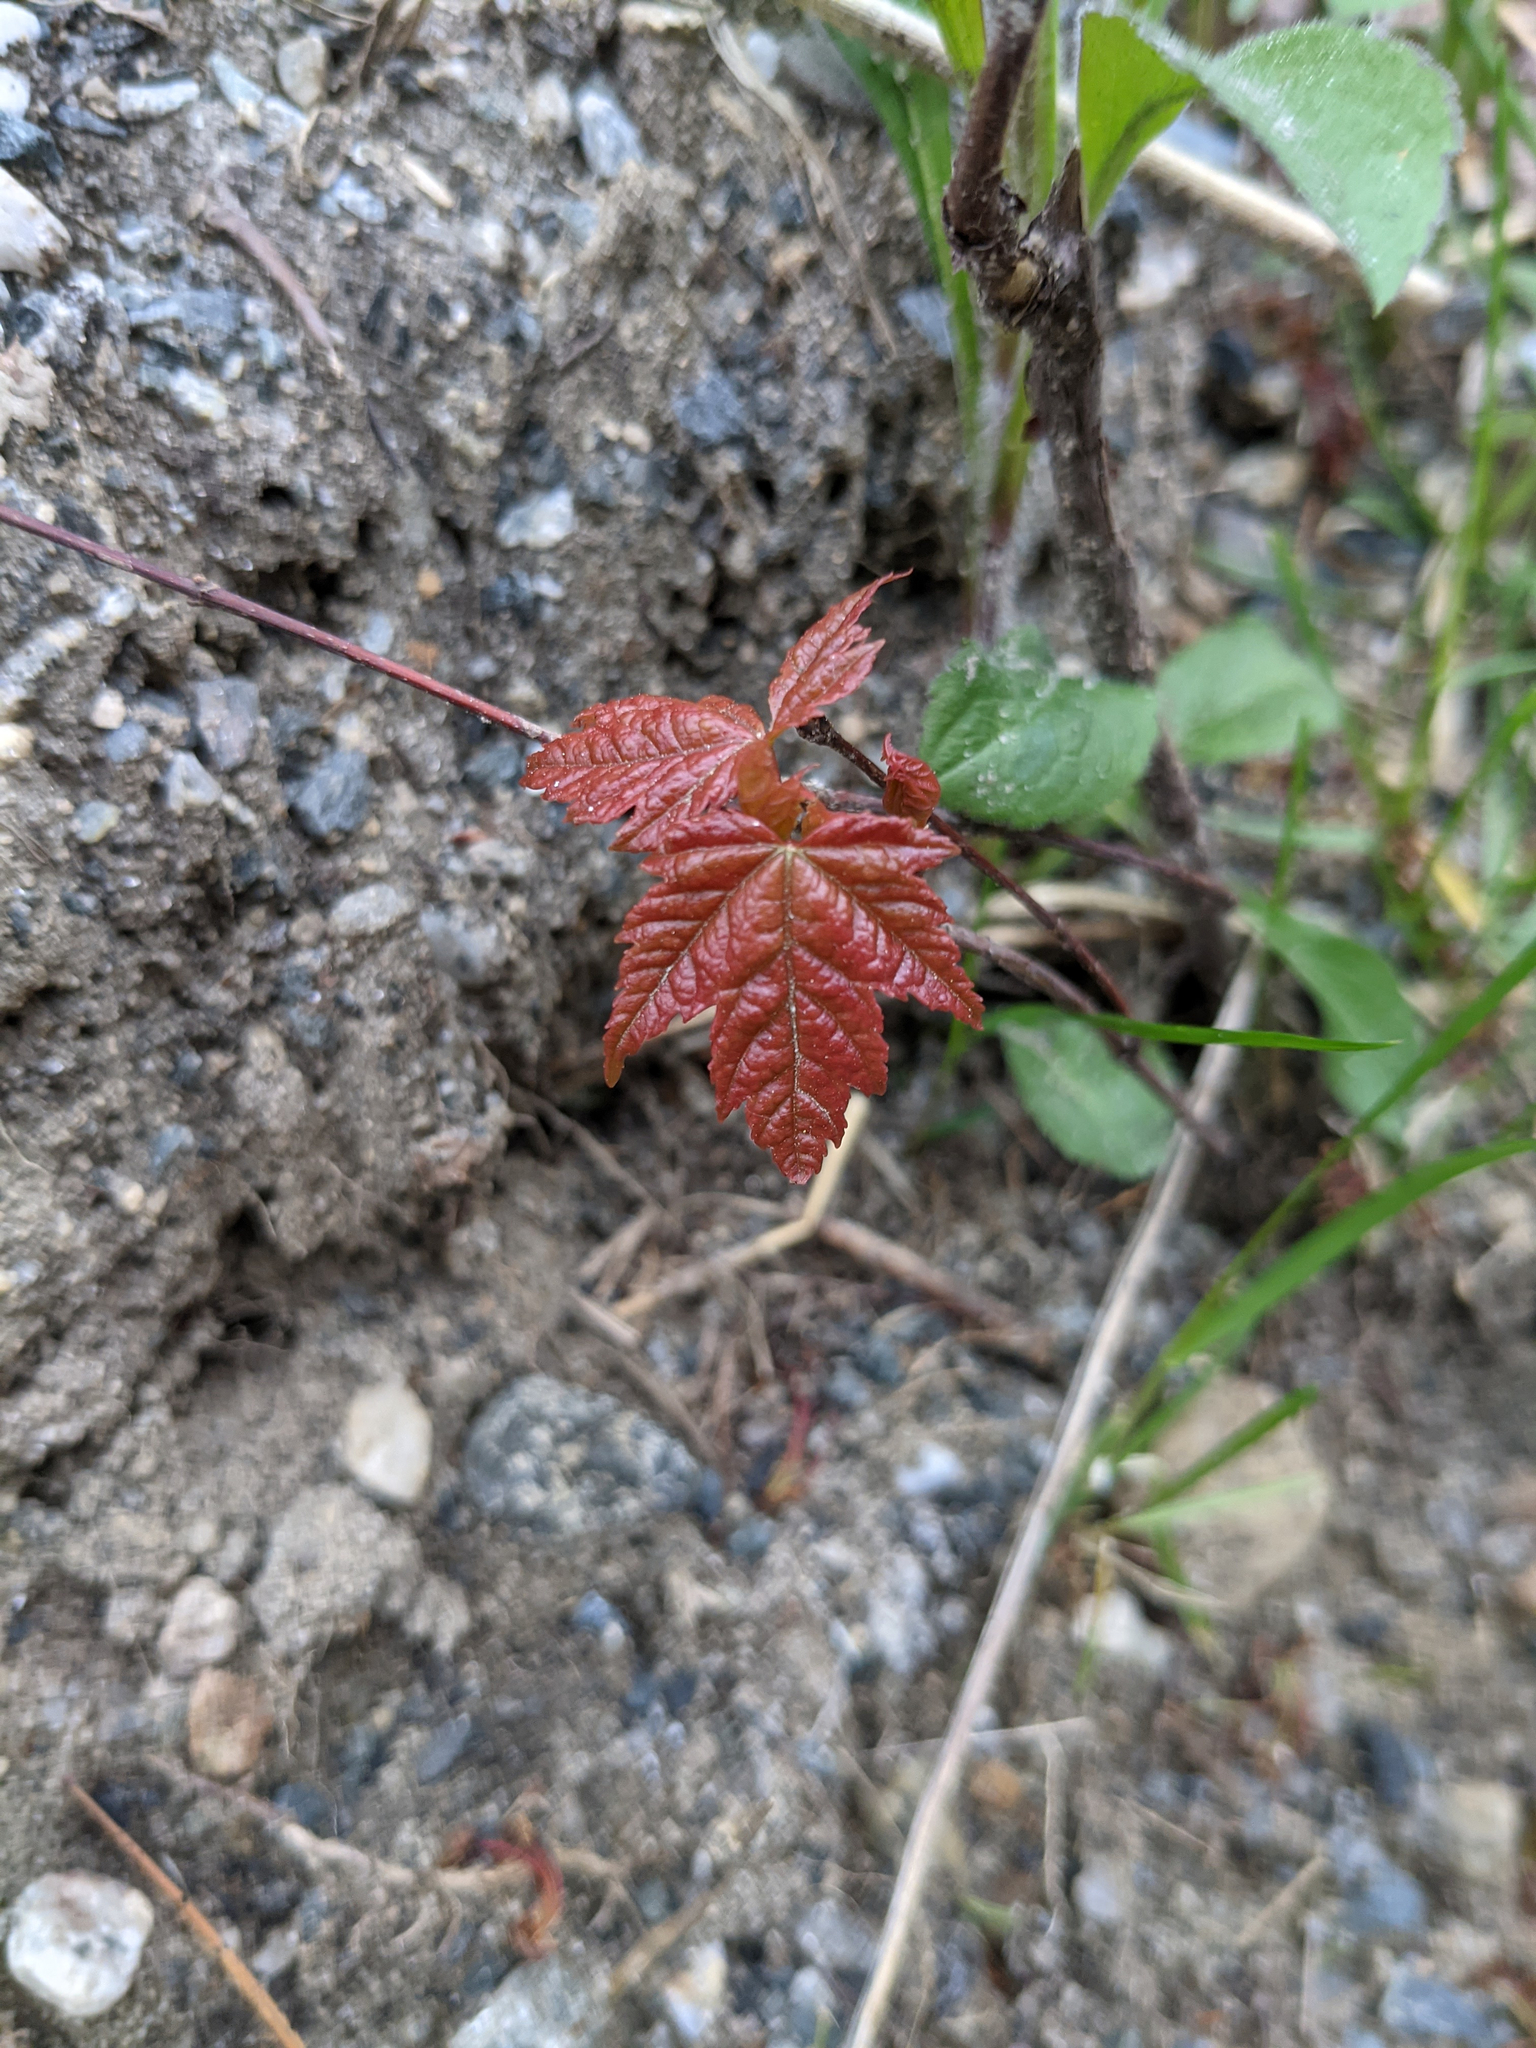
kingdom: Plantae
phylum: Tracheophyta
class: Magnoliopsida
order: Sapindales
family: Sapindaceae
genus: Acer
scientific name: Acer rubrum
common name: Red maple
